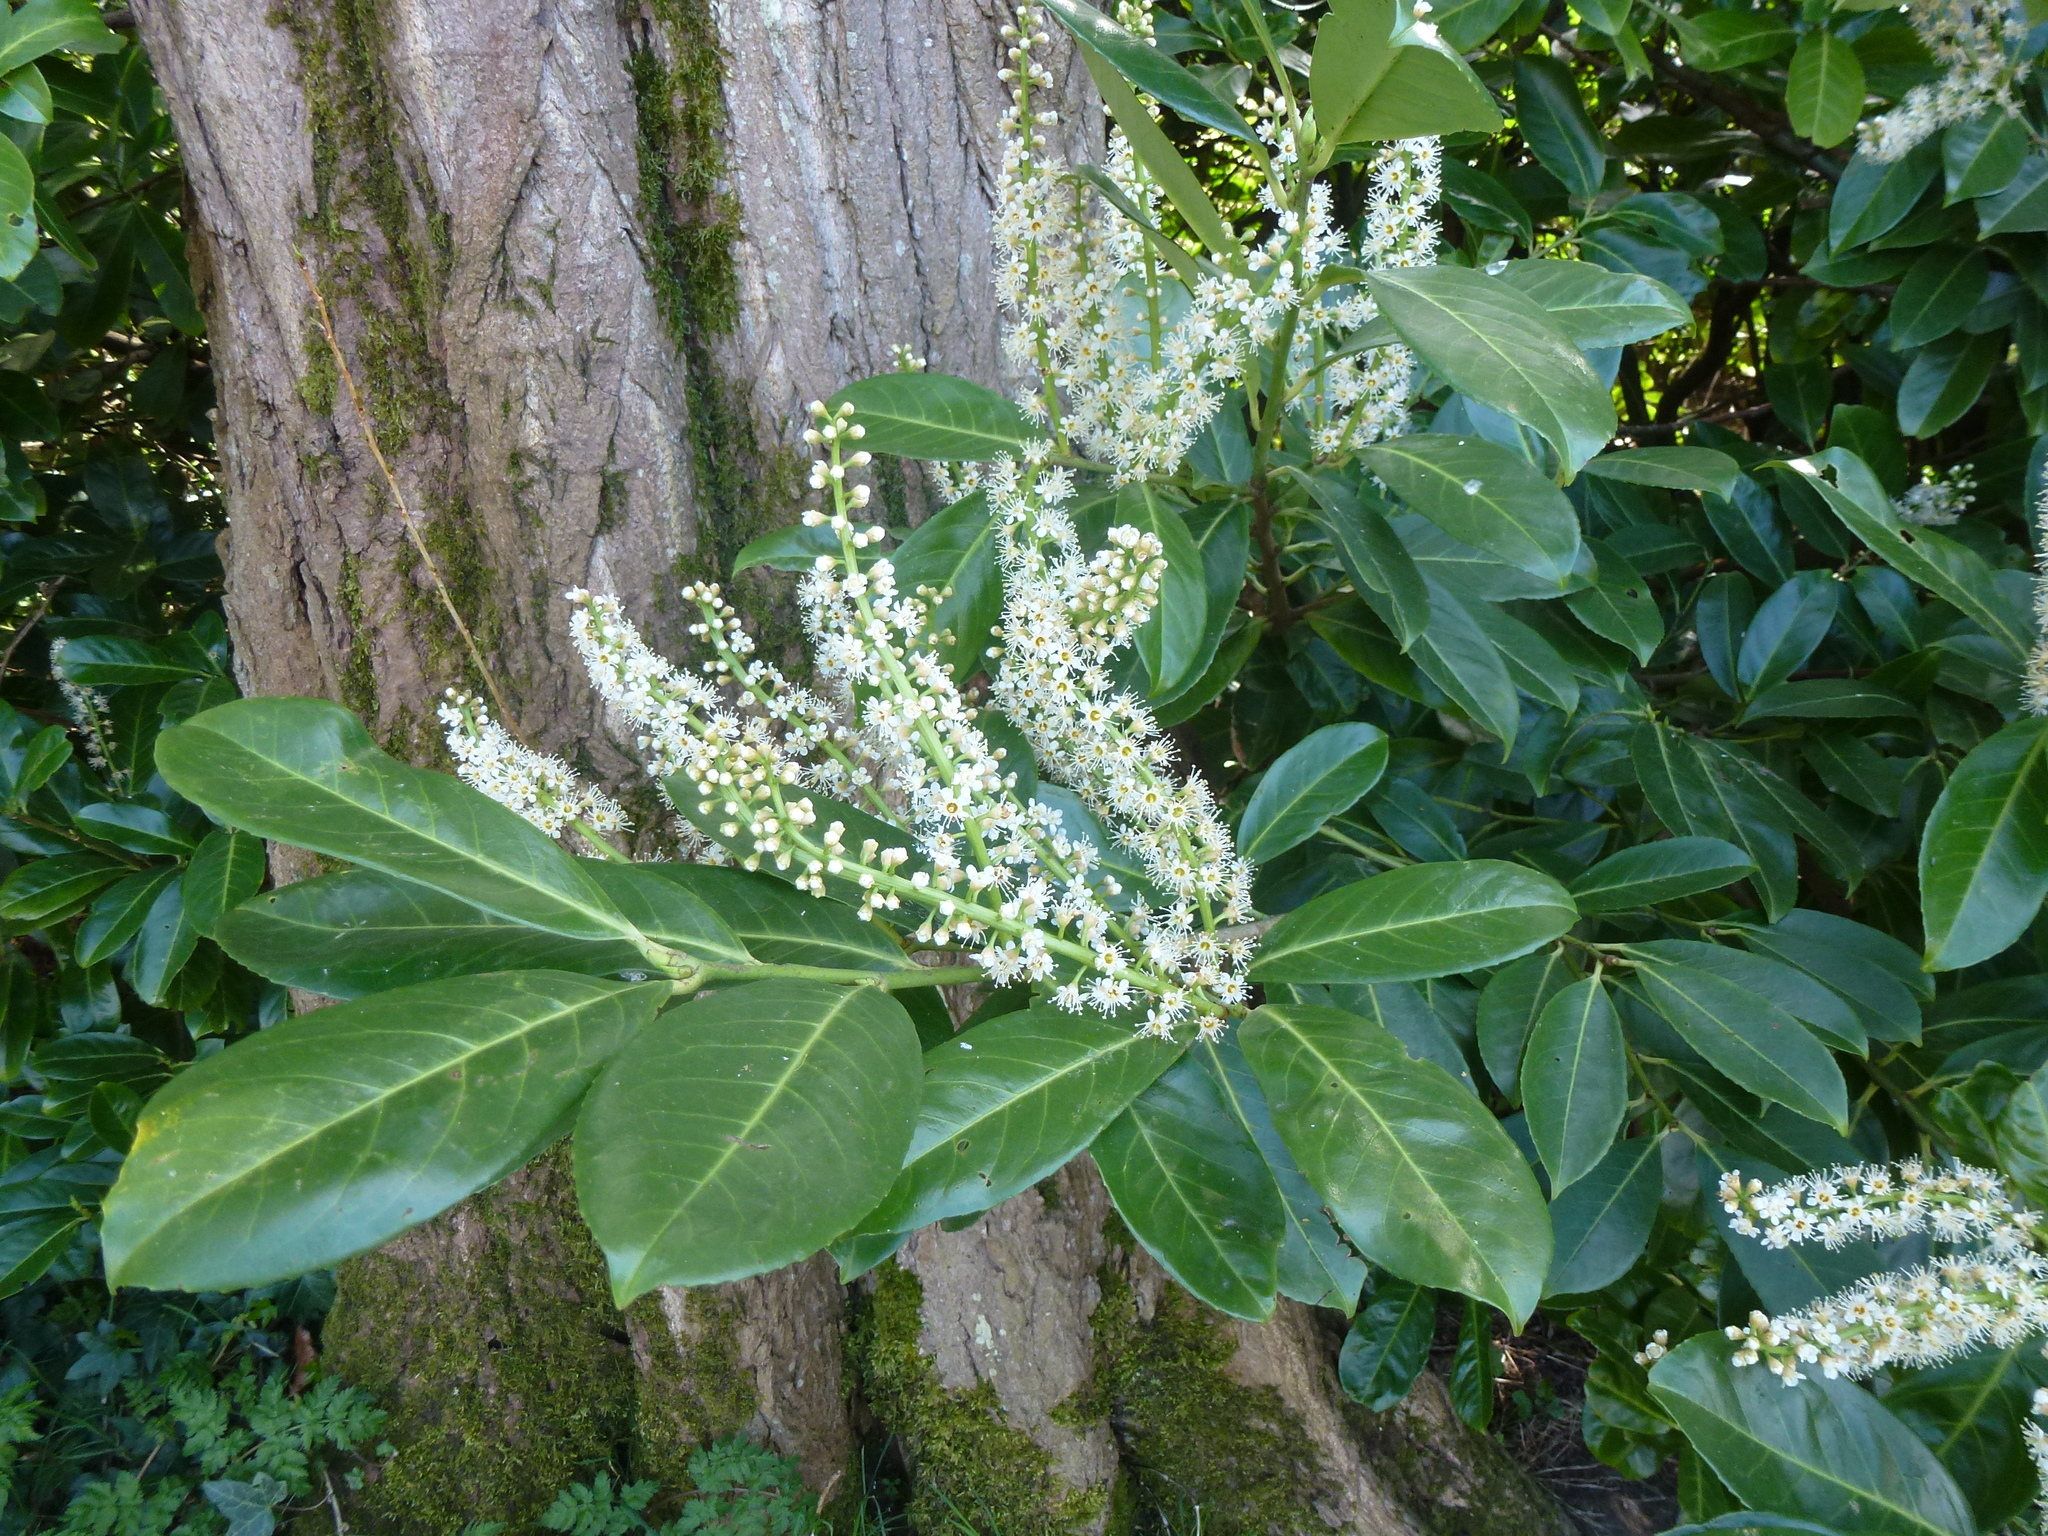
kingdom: Plantae
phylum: Tracheophyta
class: Magnoliopsida
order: Rosales
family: Rosaceae
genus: Prunus
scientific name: Prunus laurocerasus
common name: Cherry laurel
